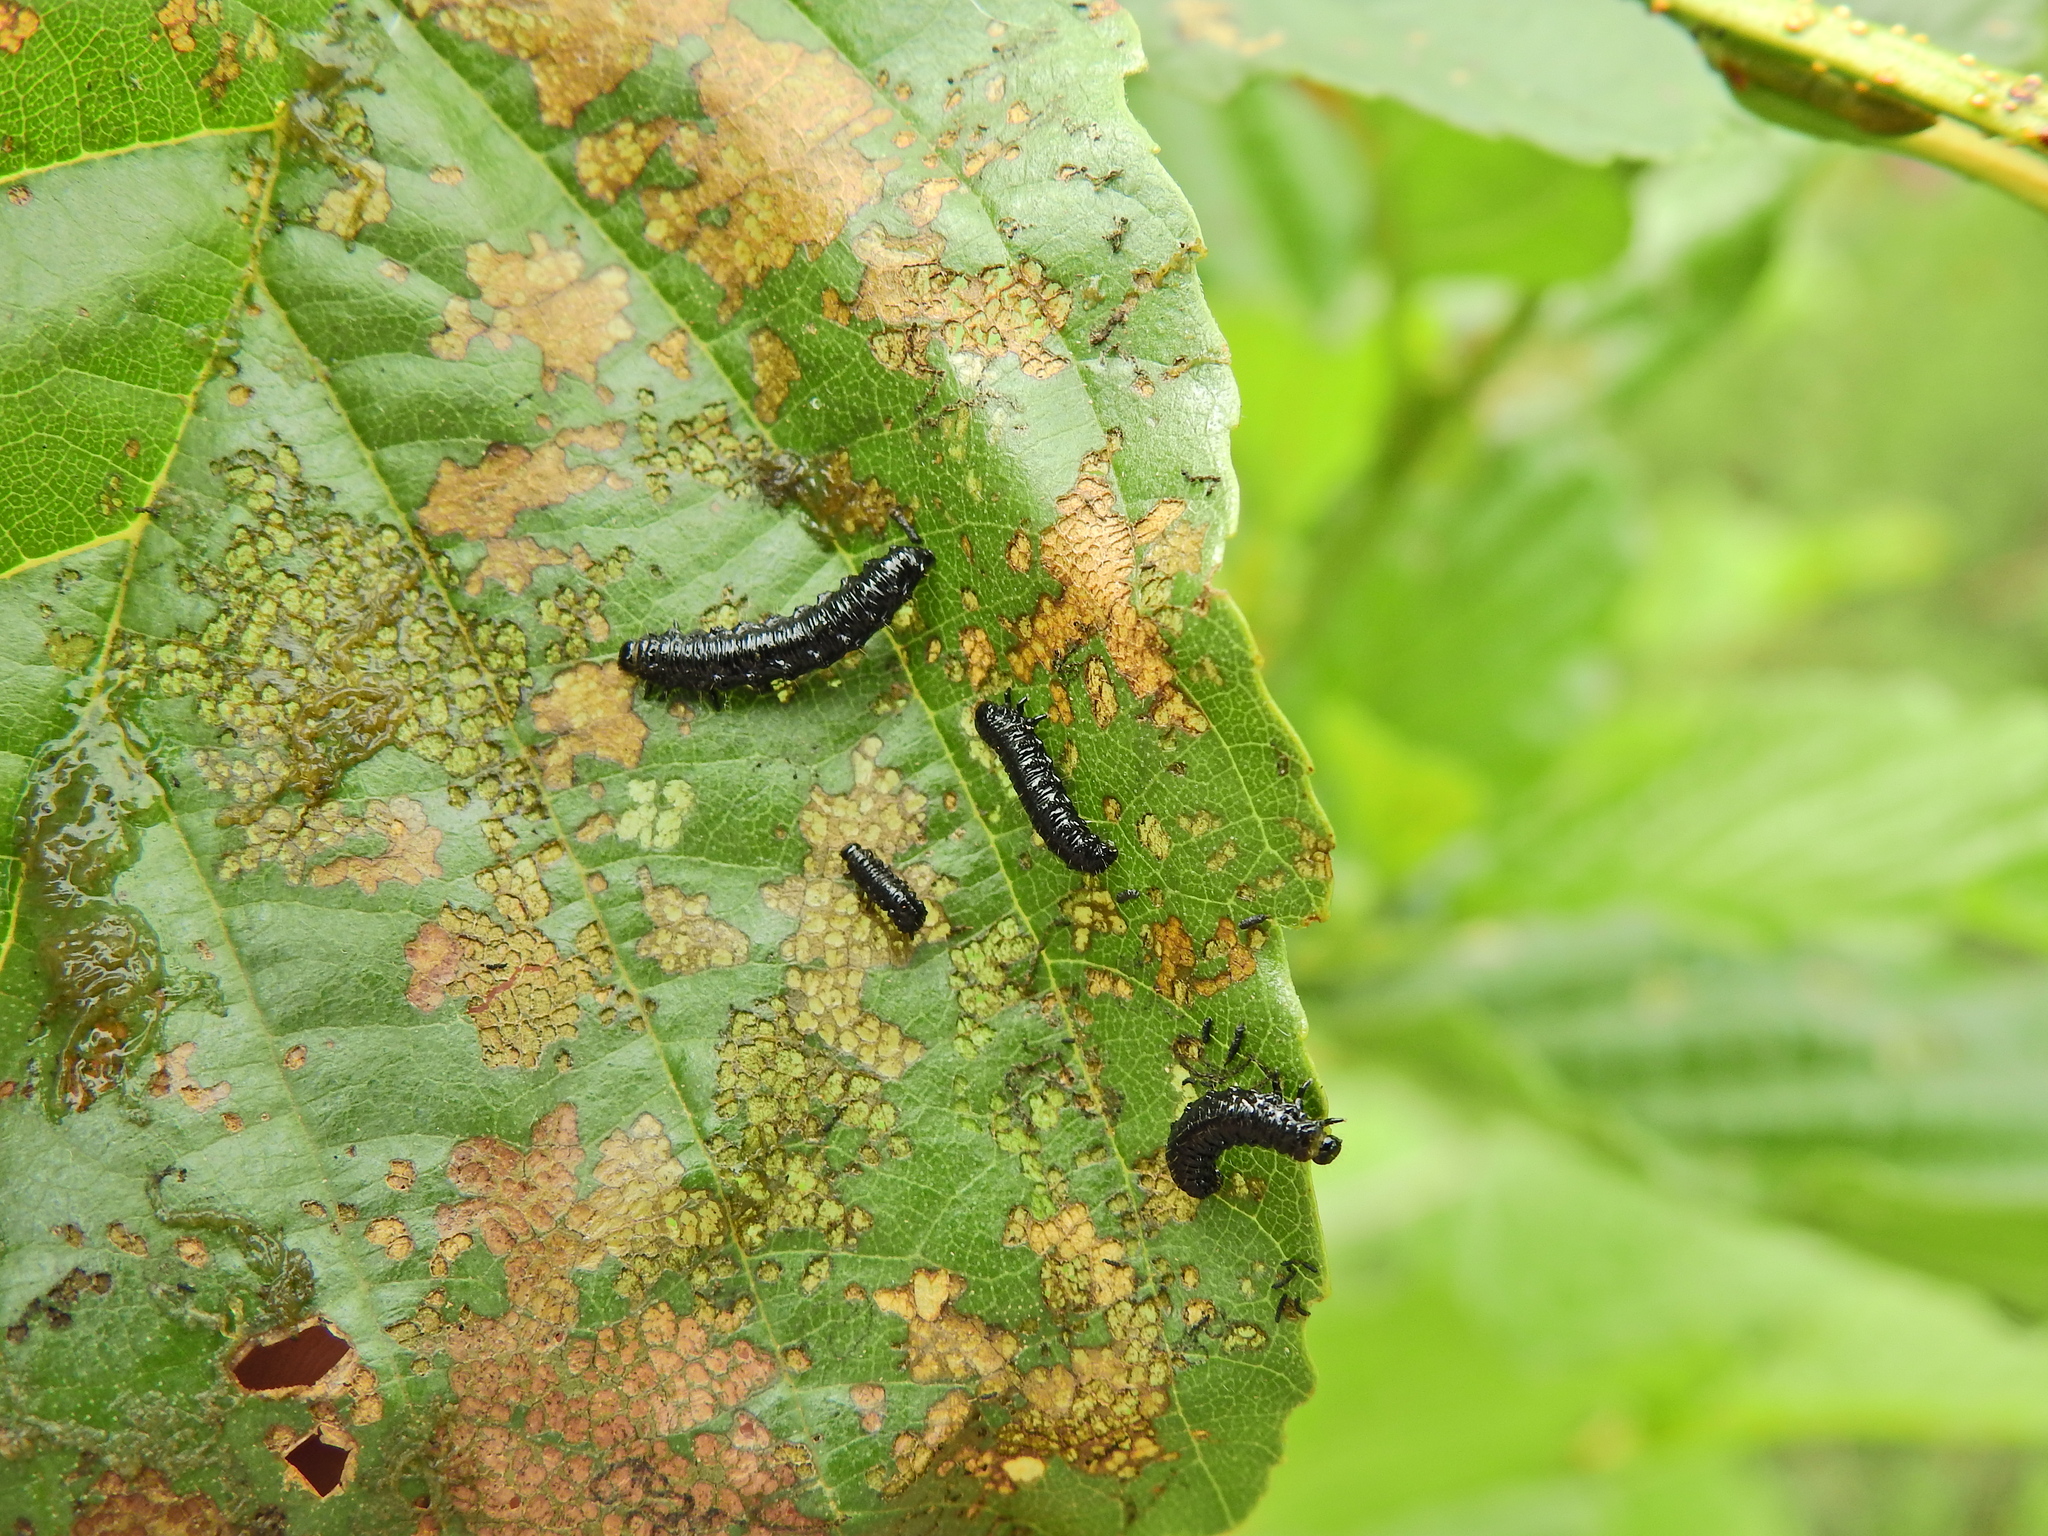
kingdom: Animalia
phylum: Arthropoda
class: Insecta
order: Coleoptera
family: Chrysomelidae
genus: Agelastica
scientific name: Agelastica alni
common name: Alder leaf beetle
